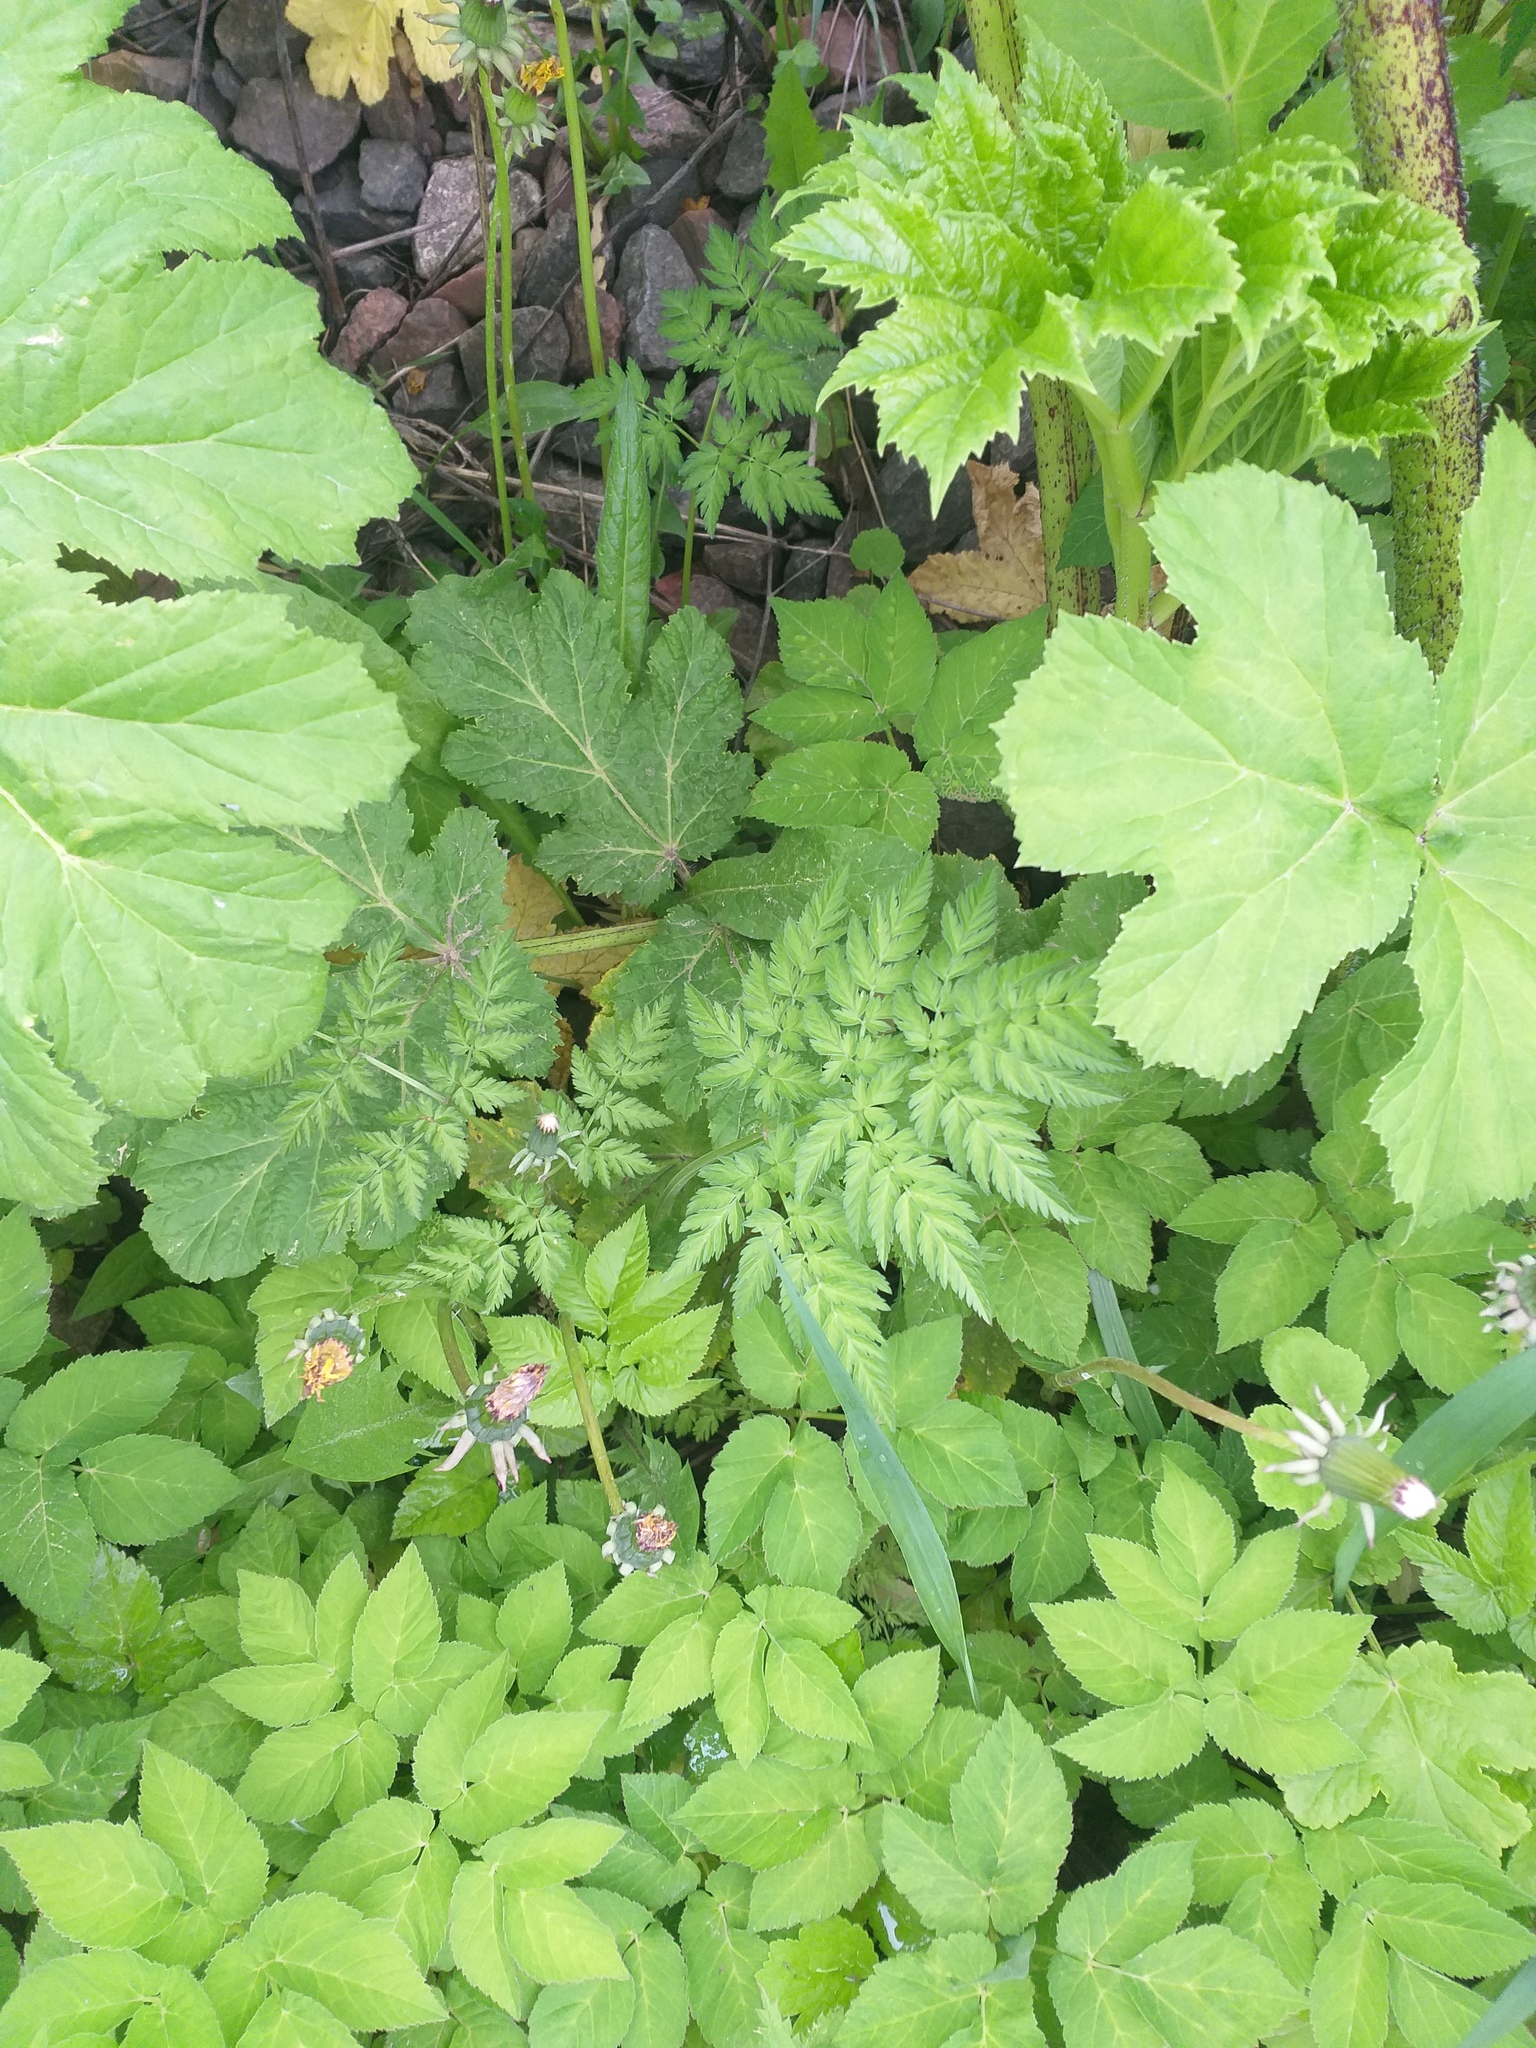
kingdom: Plantae
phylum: Tracheophyta
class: Magnoliopsida
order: Apiales
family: Apiaceae
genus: Anthriscus
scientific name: Anthriscus sylvestris
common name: Cow parsley
